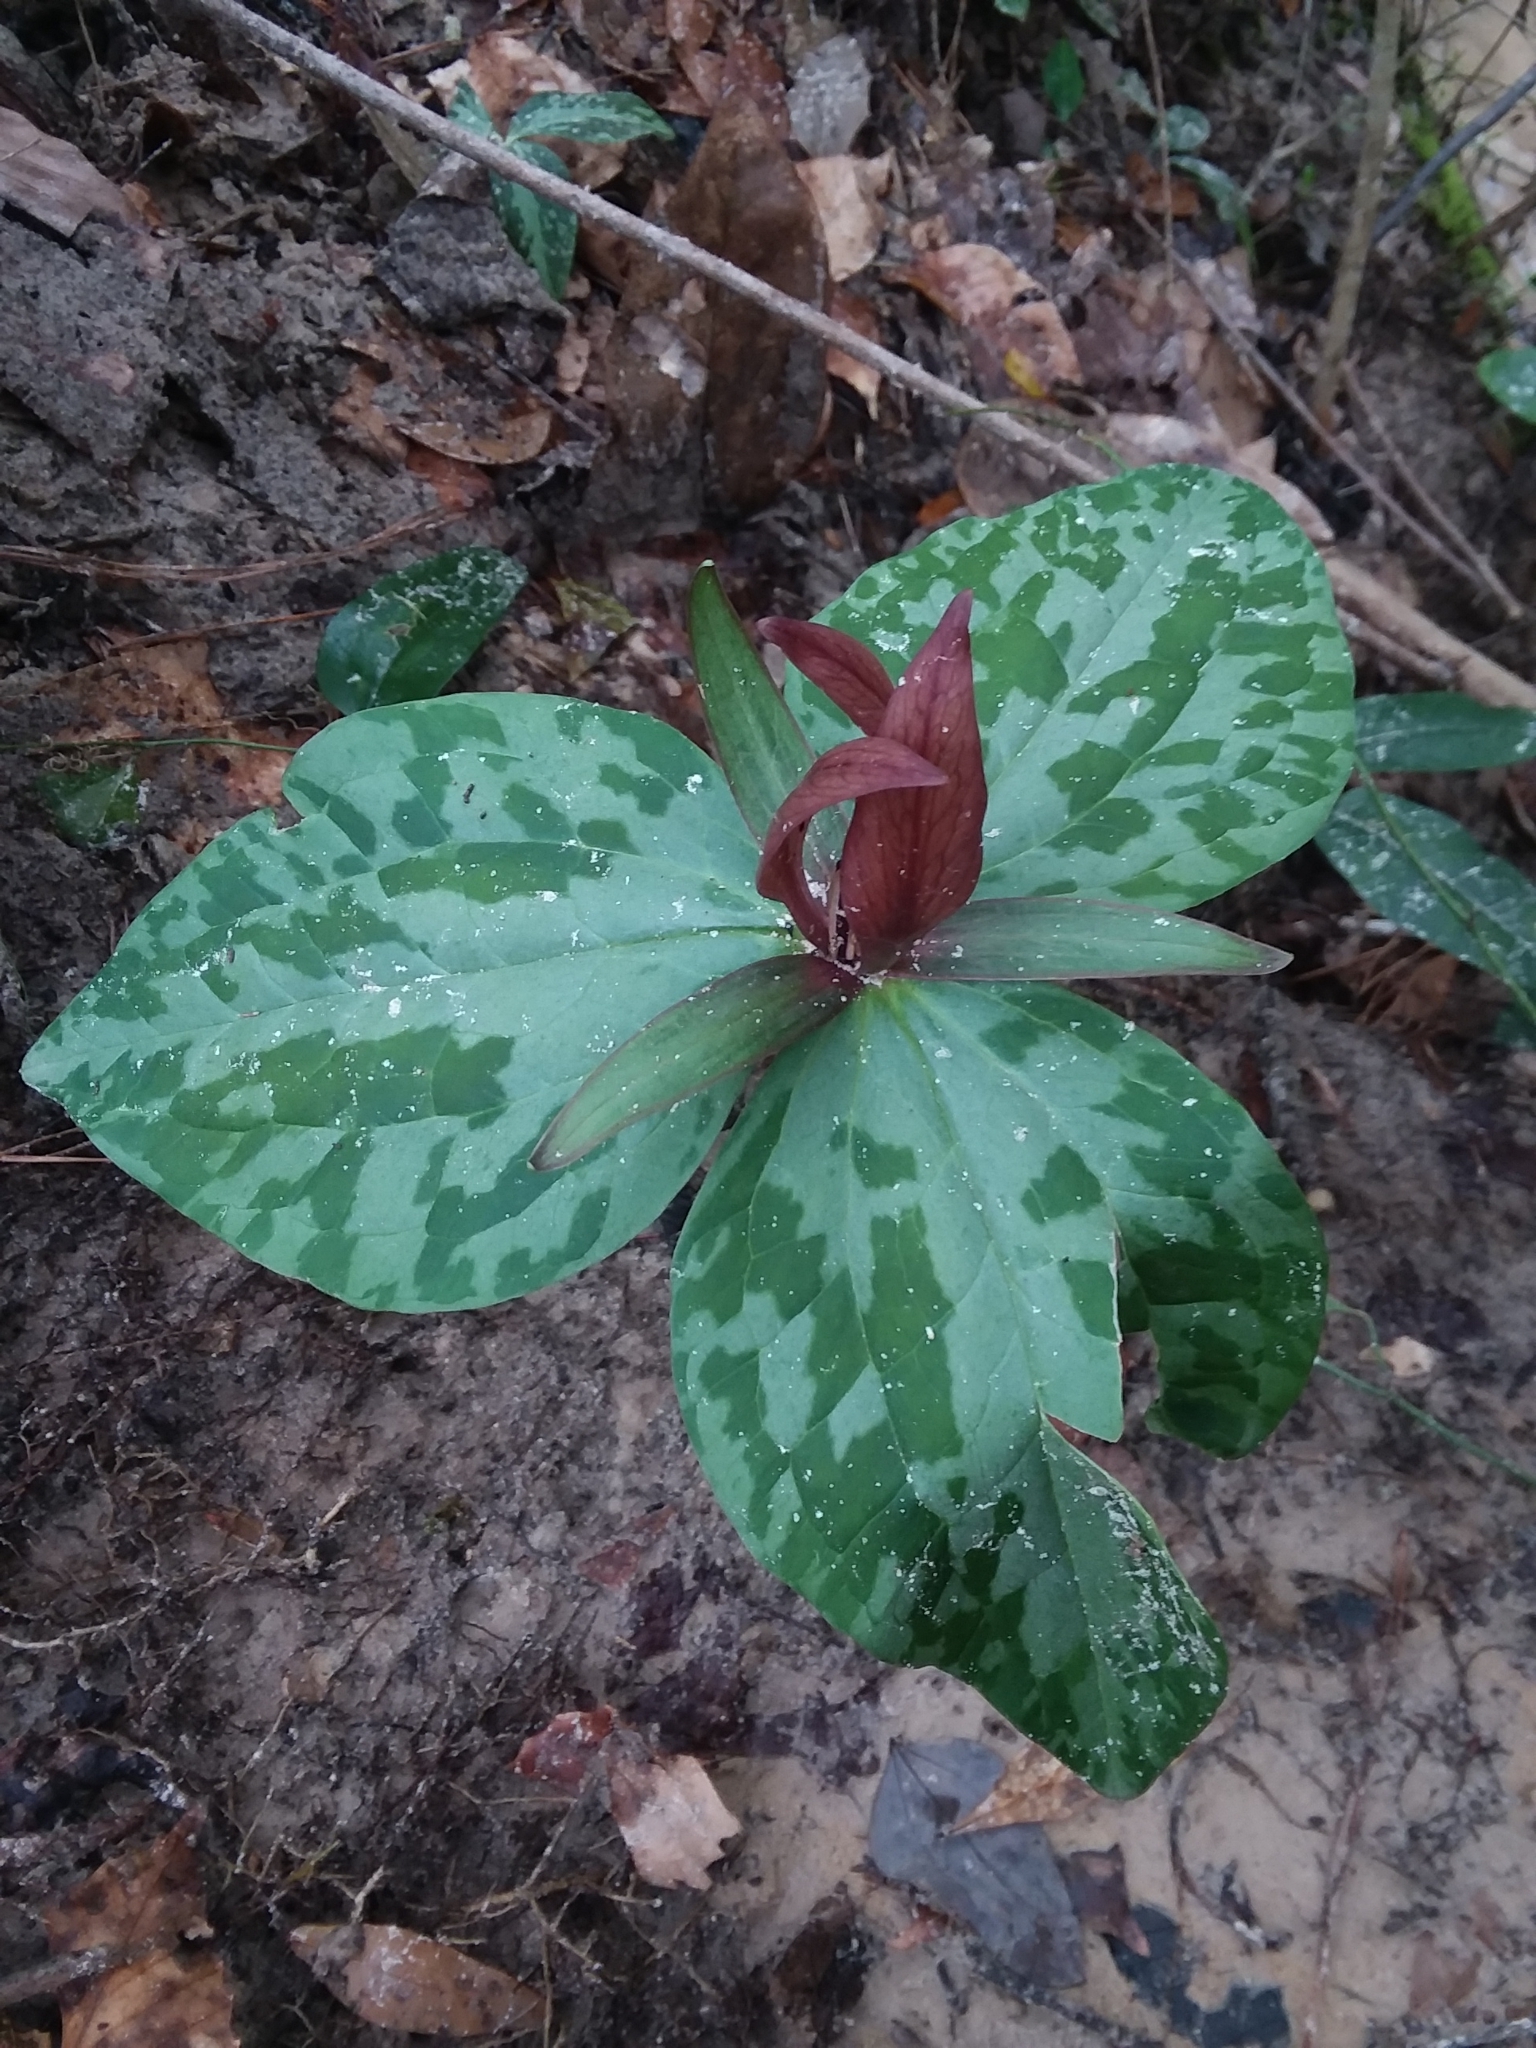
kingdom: Plantae
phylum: Tracheophyta
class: Liliopsida
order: Liliales
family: Melanthiaceae
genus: Trillium
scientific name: Trillium cuneatum
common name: Cuneate trillium
